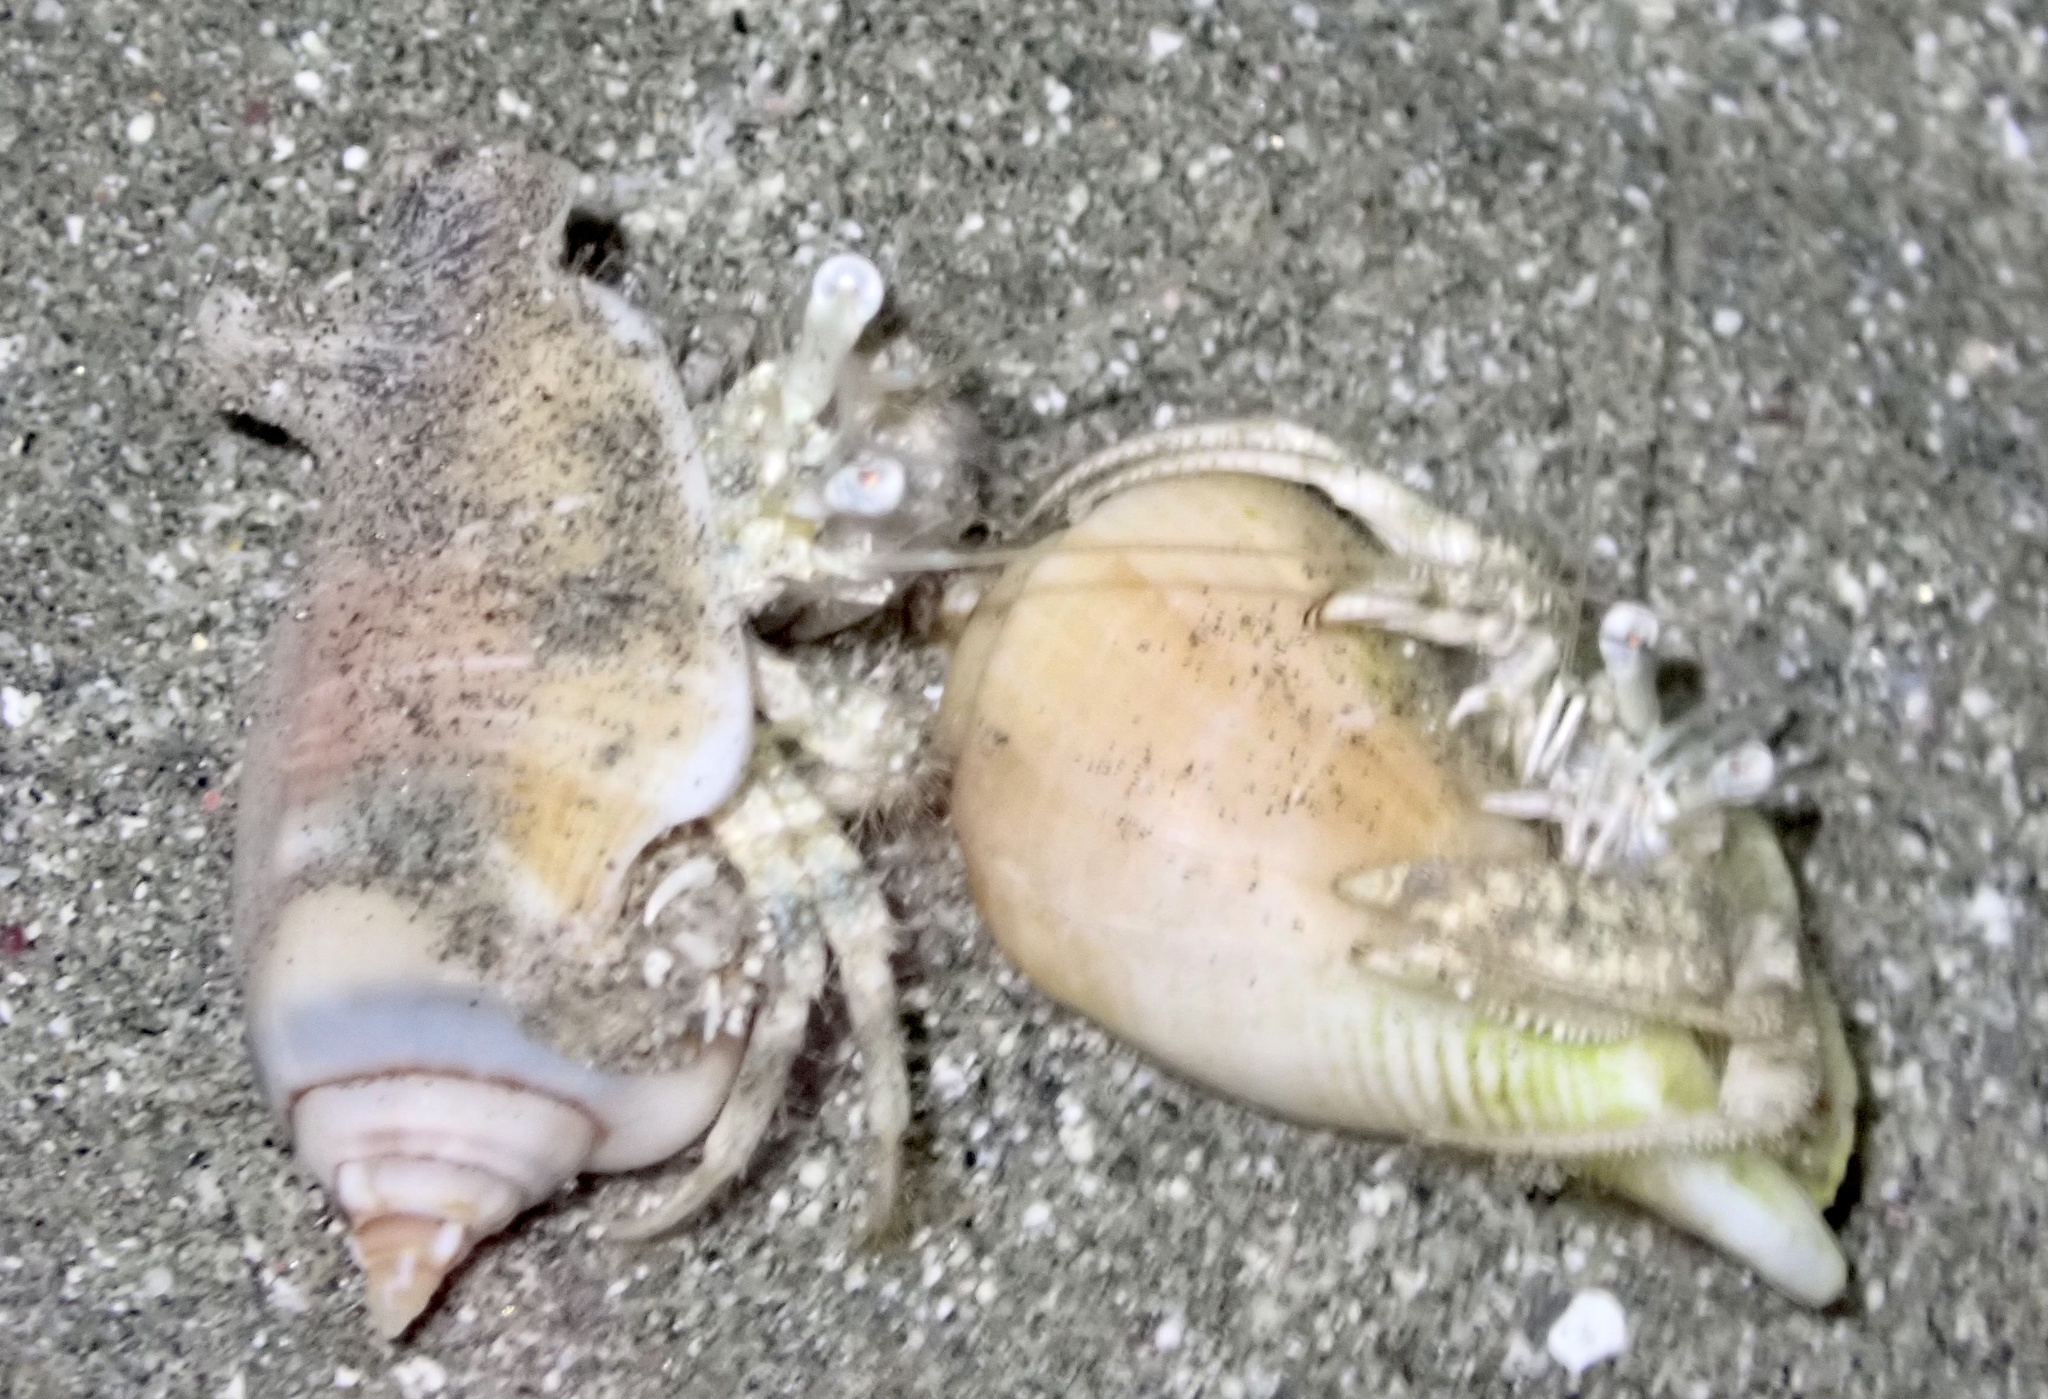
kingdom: Animalia
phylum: Arthropoda
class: Malacostraca
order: Decapoda
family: Diogenidae
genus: Dardanus
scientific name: Dardanus woodmasoni
